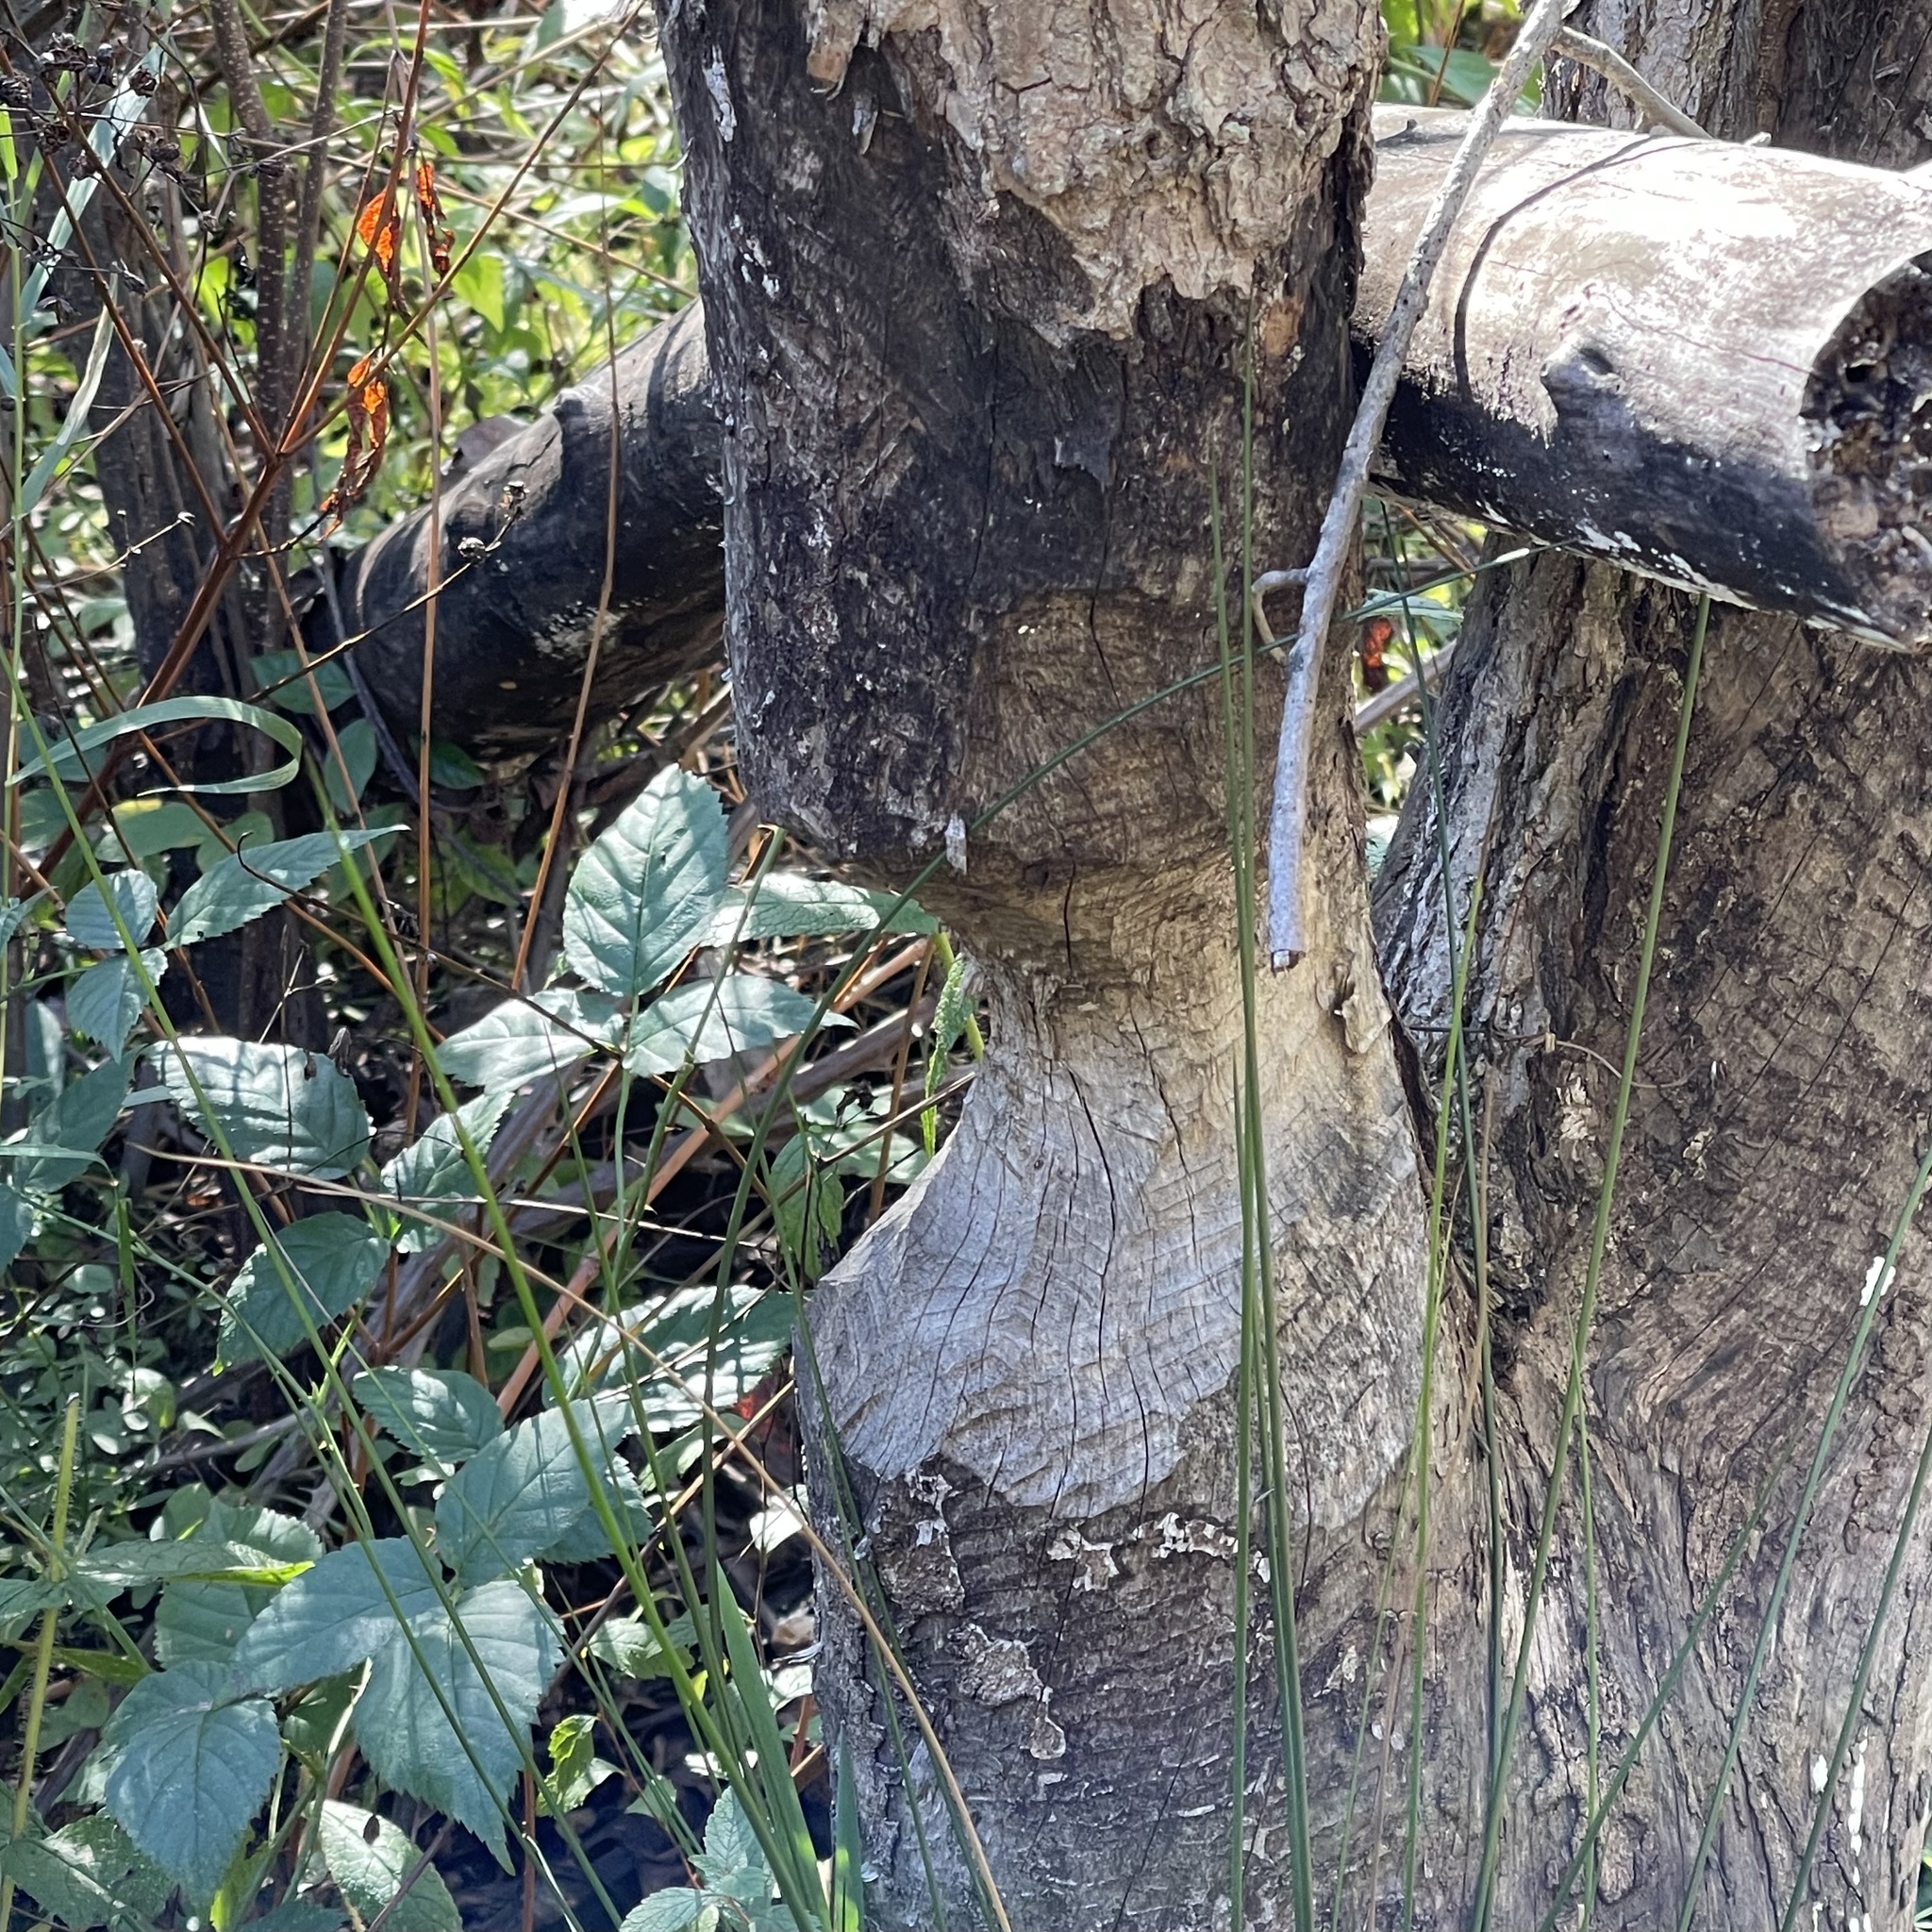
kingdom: Animalia
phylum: Chordata
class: Mammalia
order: Rodentia
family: Castoridae
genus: Castor
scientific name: Castor canadensis
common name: American beaver
